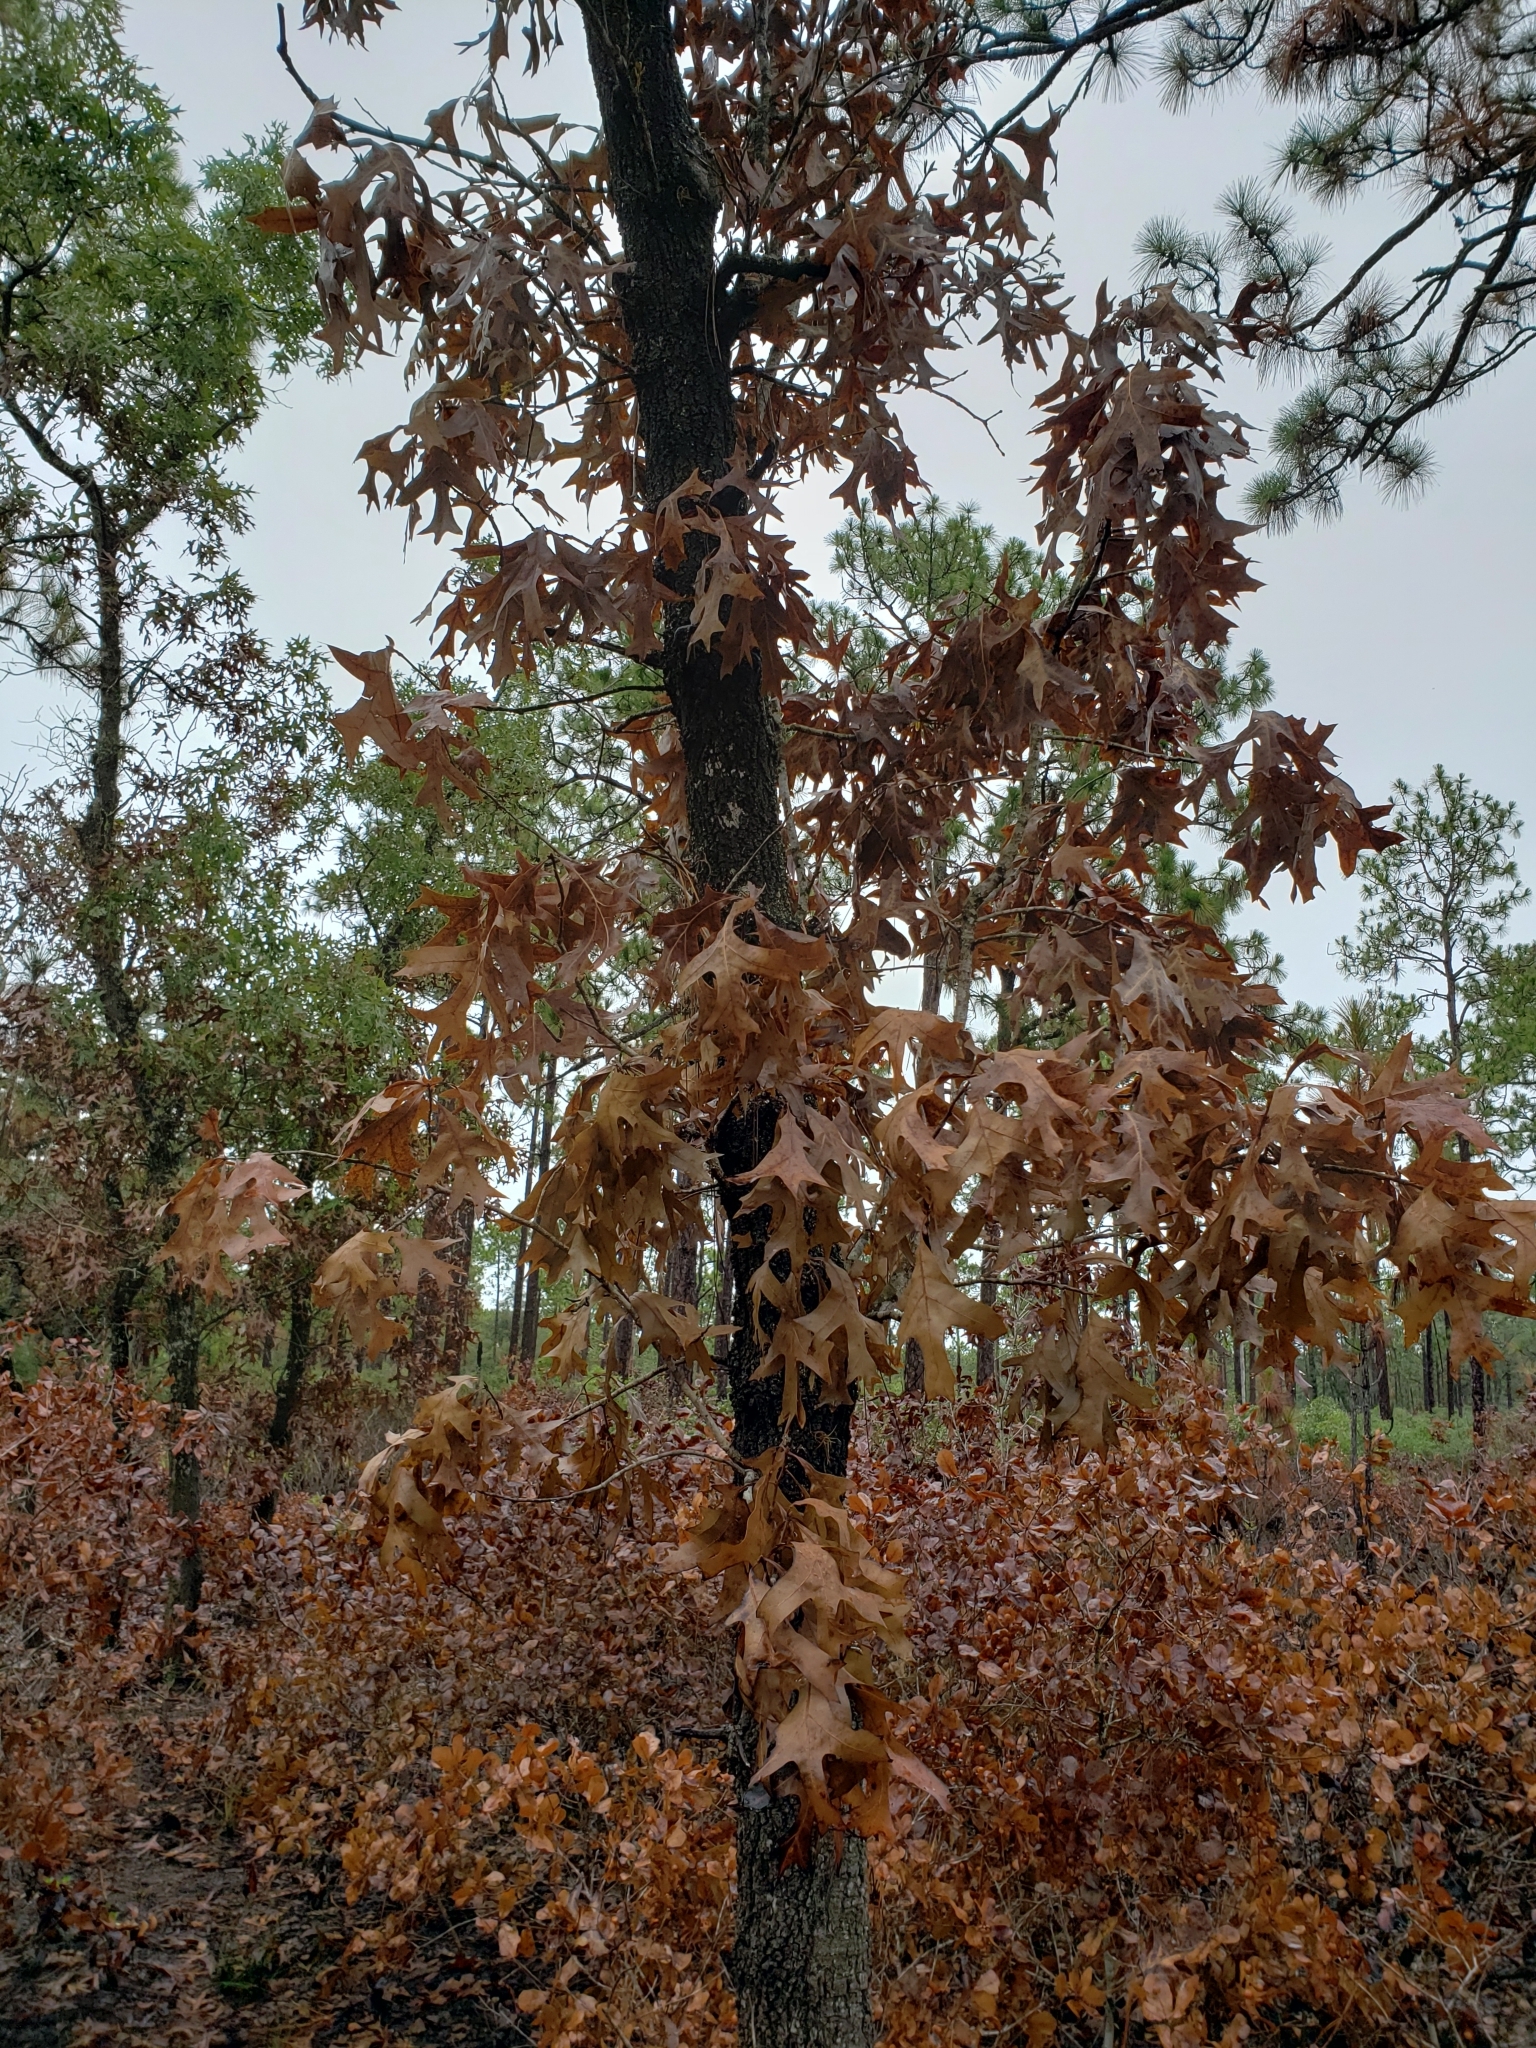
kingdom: Plantae
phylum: Tracheophyta
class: Magnoliopsida
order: Fagales
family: Fagaceae
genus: Quercus
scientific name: Quercus laevis
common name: Turkey oak
